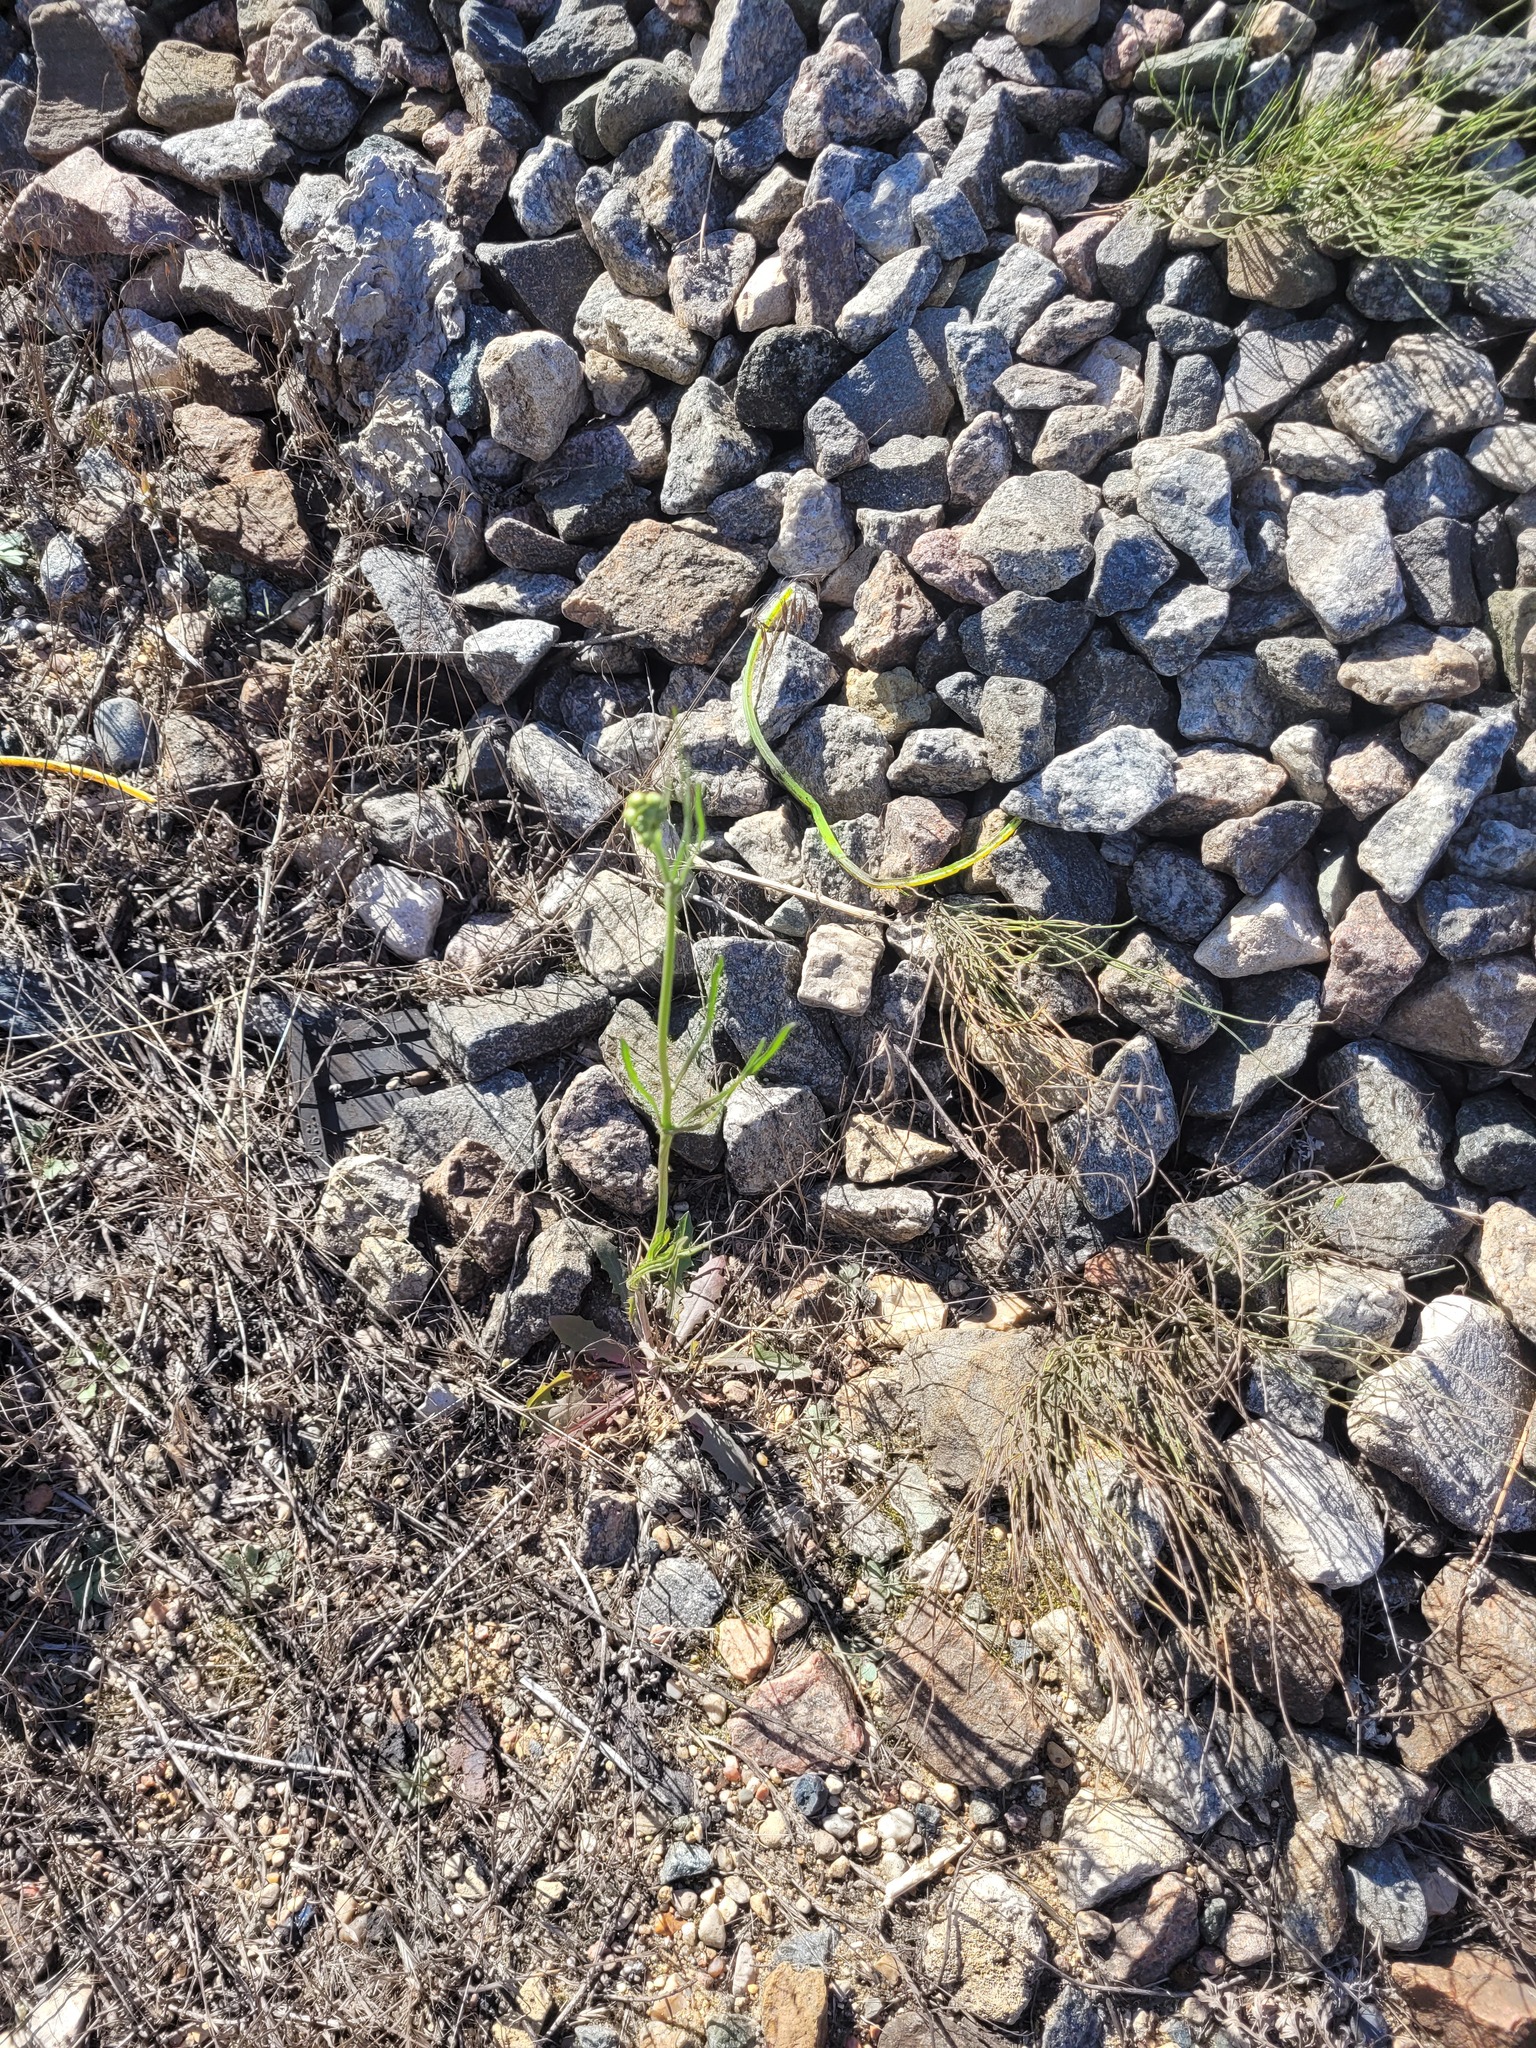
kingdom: Plantae
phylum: Tracheophyta
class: Magnoliopsida
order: Asterales
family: Asteraceae
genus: Crepis
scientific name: Crepis tectorum
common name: Narrow-leaved hawk's-beard
